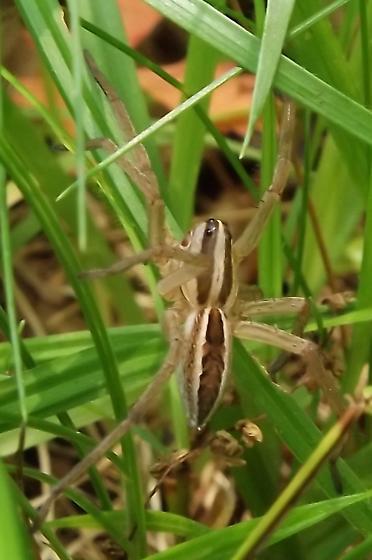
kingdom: Animalia
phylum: Arthropoda
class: Arachnida
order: Araneae
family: Lycosidae
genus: Rabidosa
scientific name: Rabidosa rabida
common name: Rabid wolf spider
